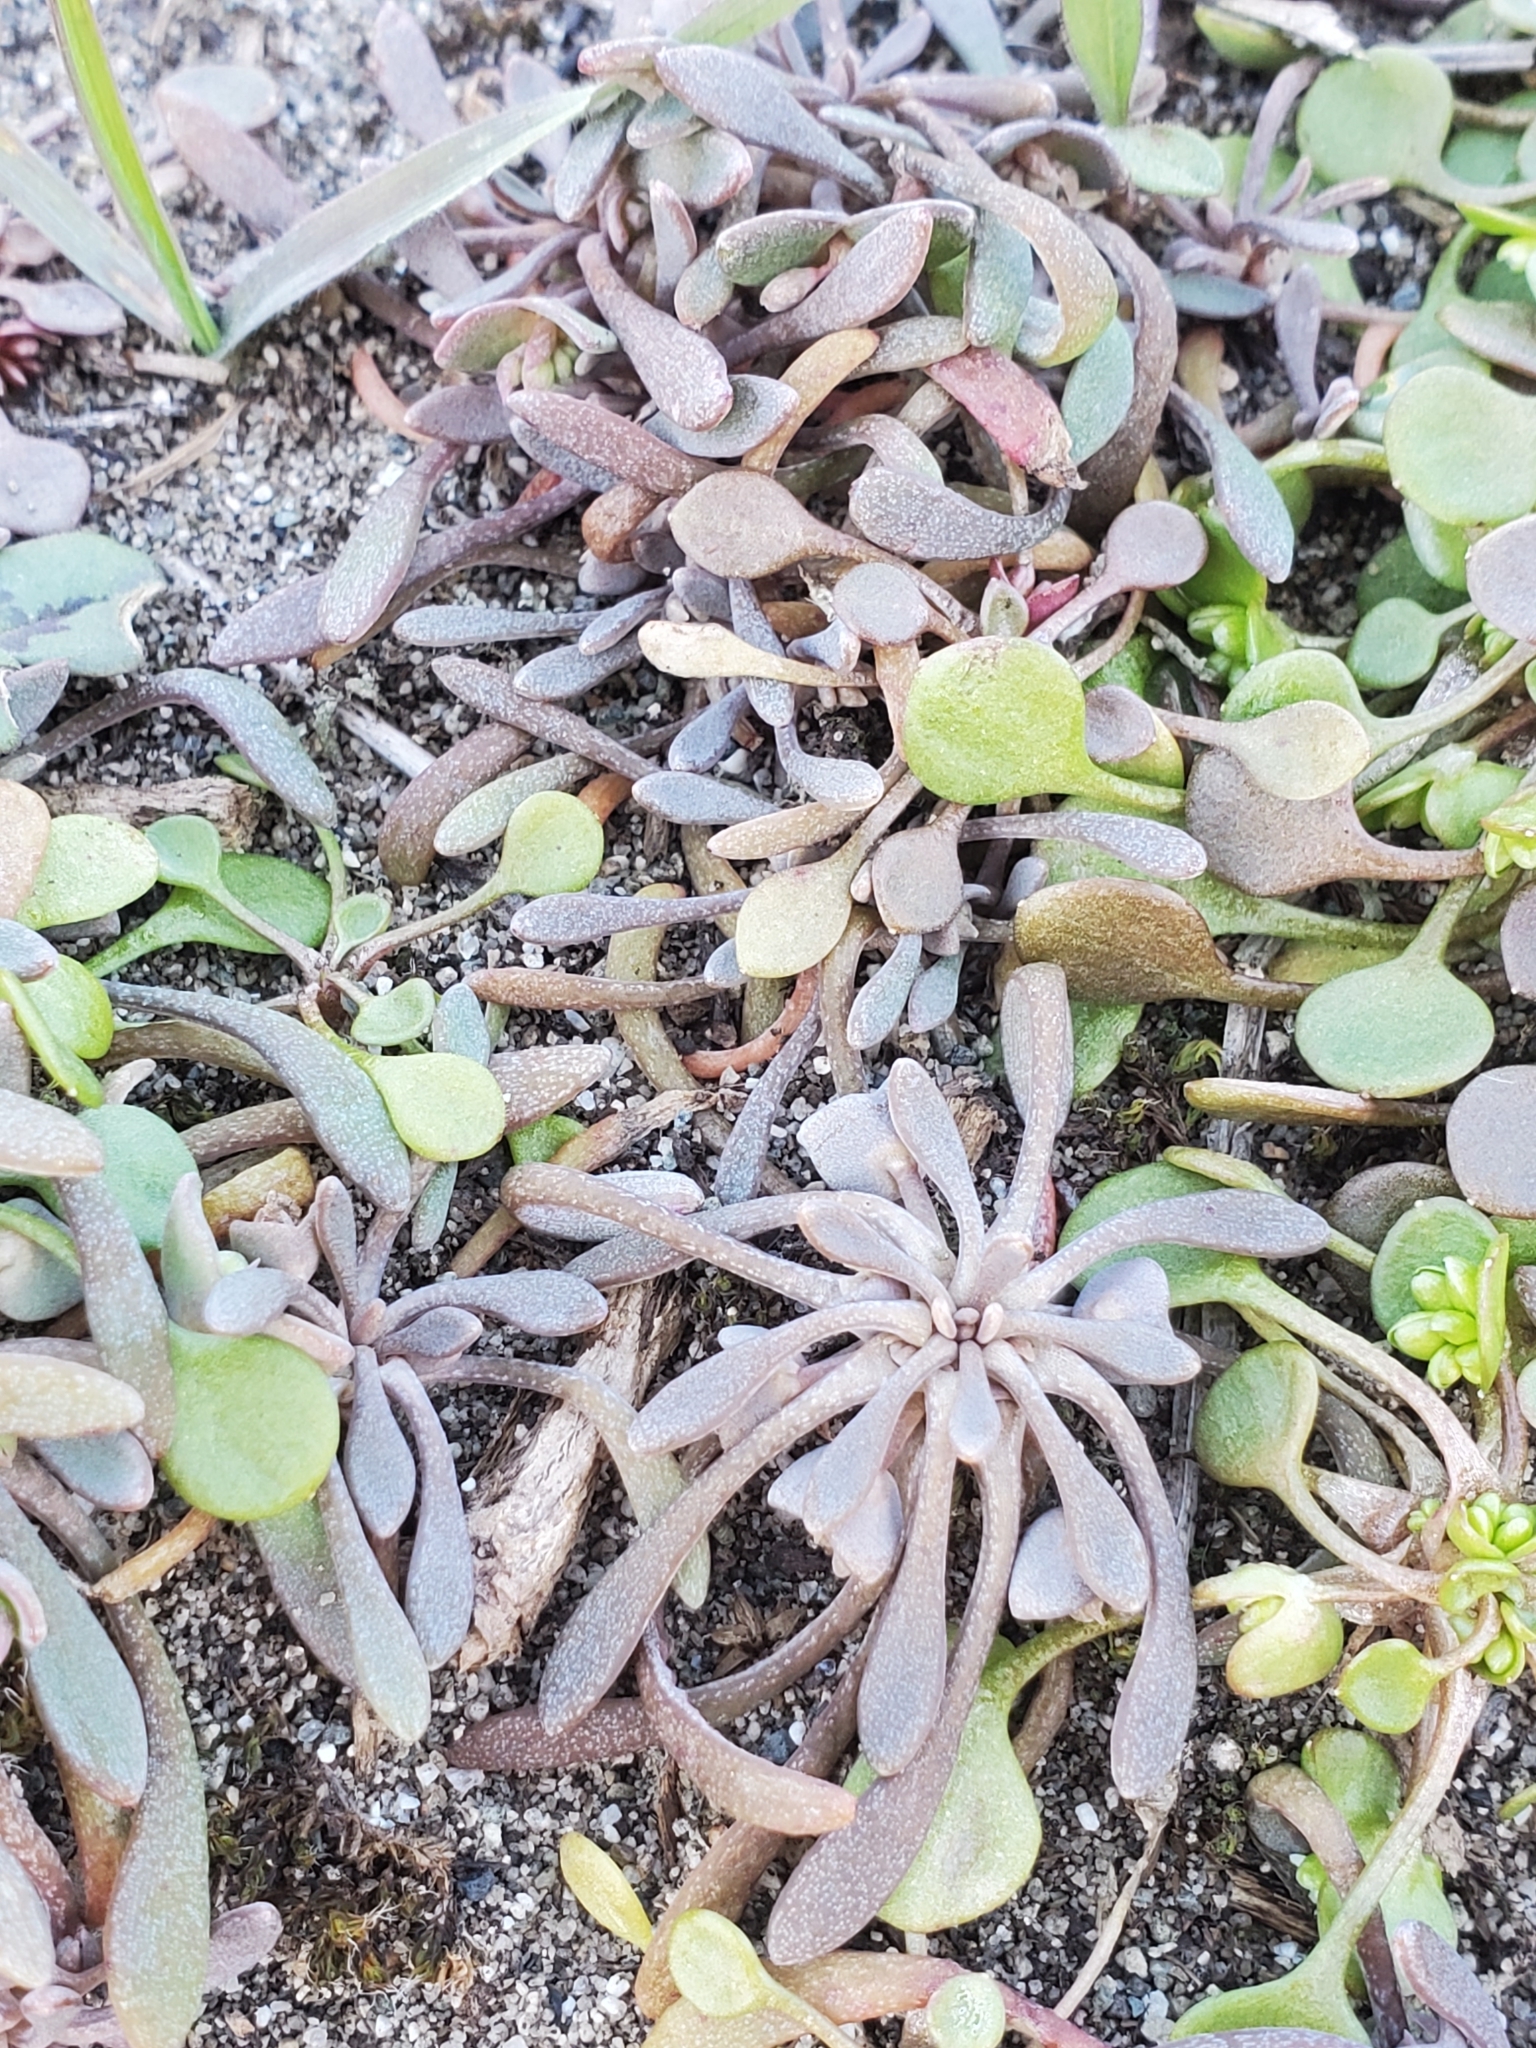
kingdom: Plantae
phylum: Tracheophyta
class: Magnoliopsida
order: Caryophyllales
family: Montiaceae
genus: Claytonia
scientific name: Claytonia exigua
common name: Pale spring beauty
